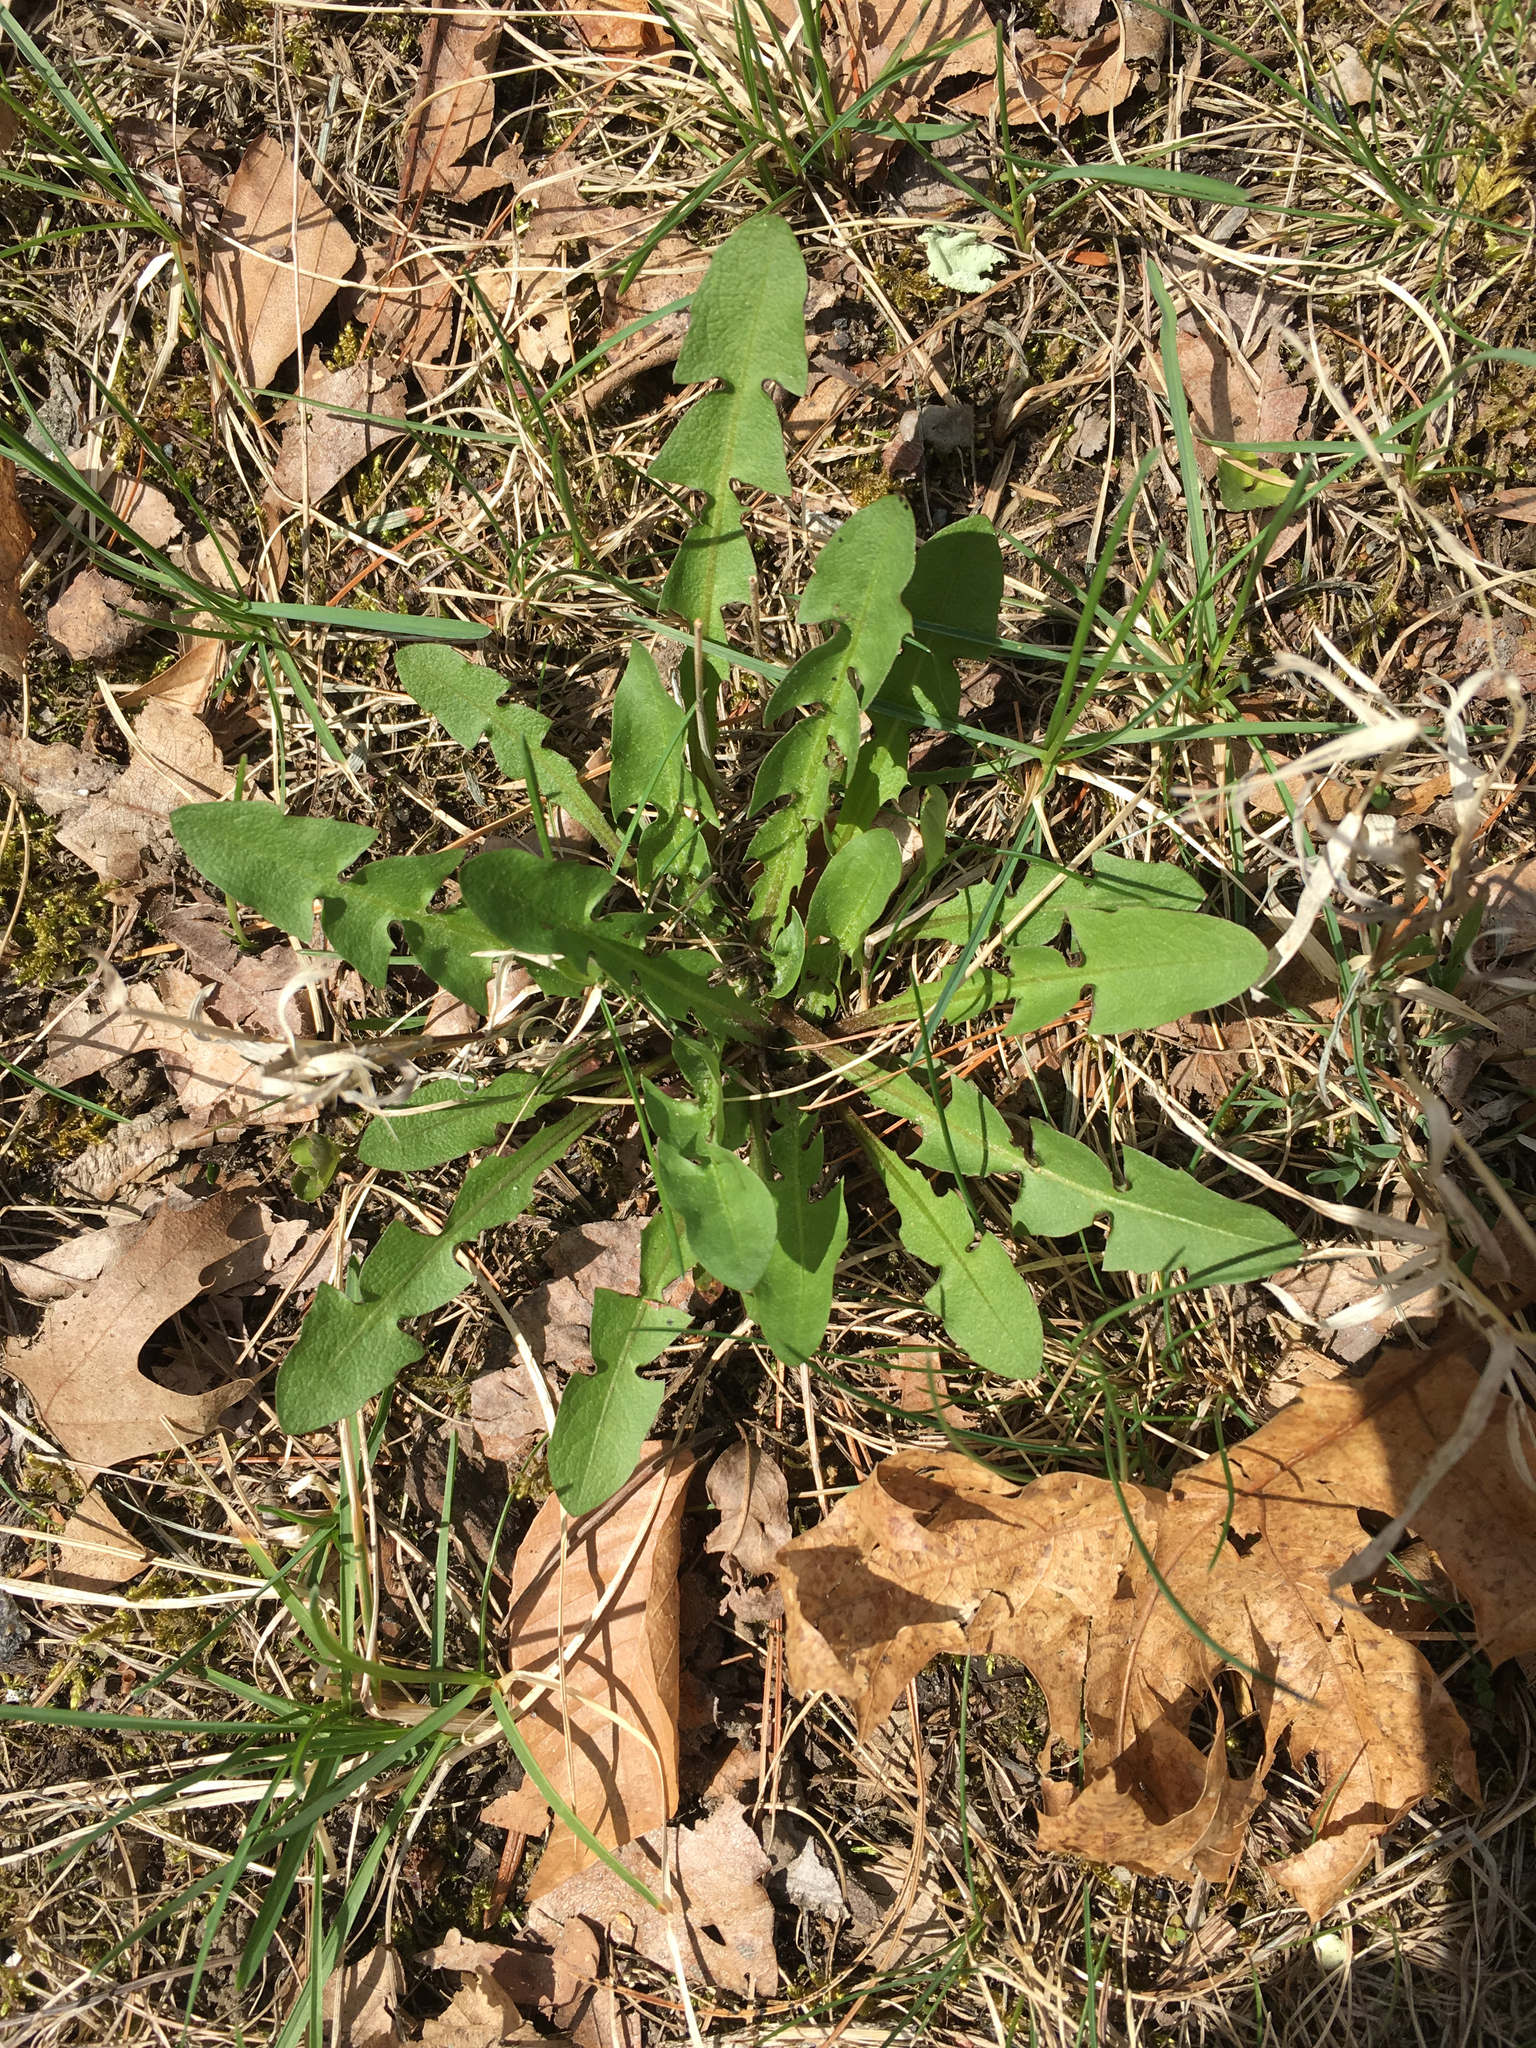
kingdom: Plantae
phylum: Tracheophyta
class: Magnoliopsida
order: Asterales
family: Asteraceae
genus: Taraxacum
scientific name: Taraxacum officinale
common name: Common dandelion
